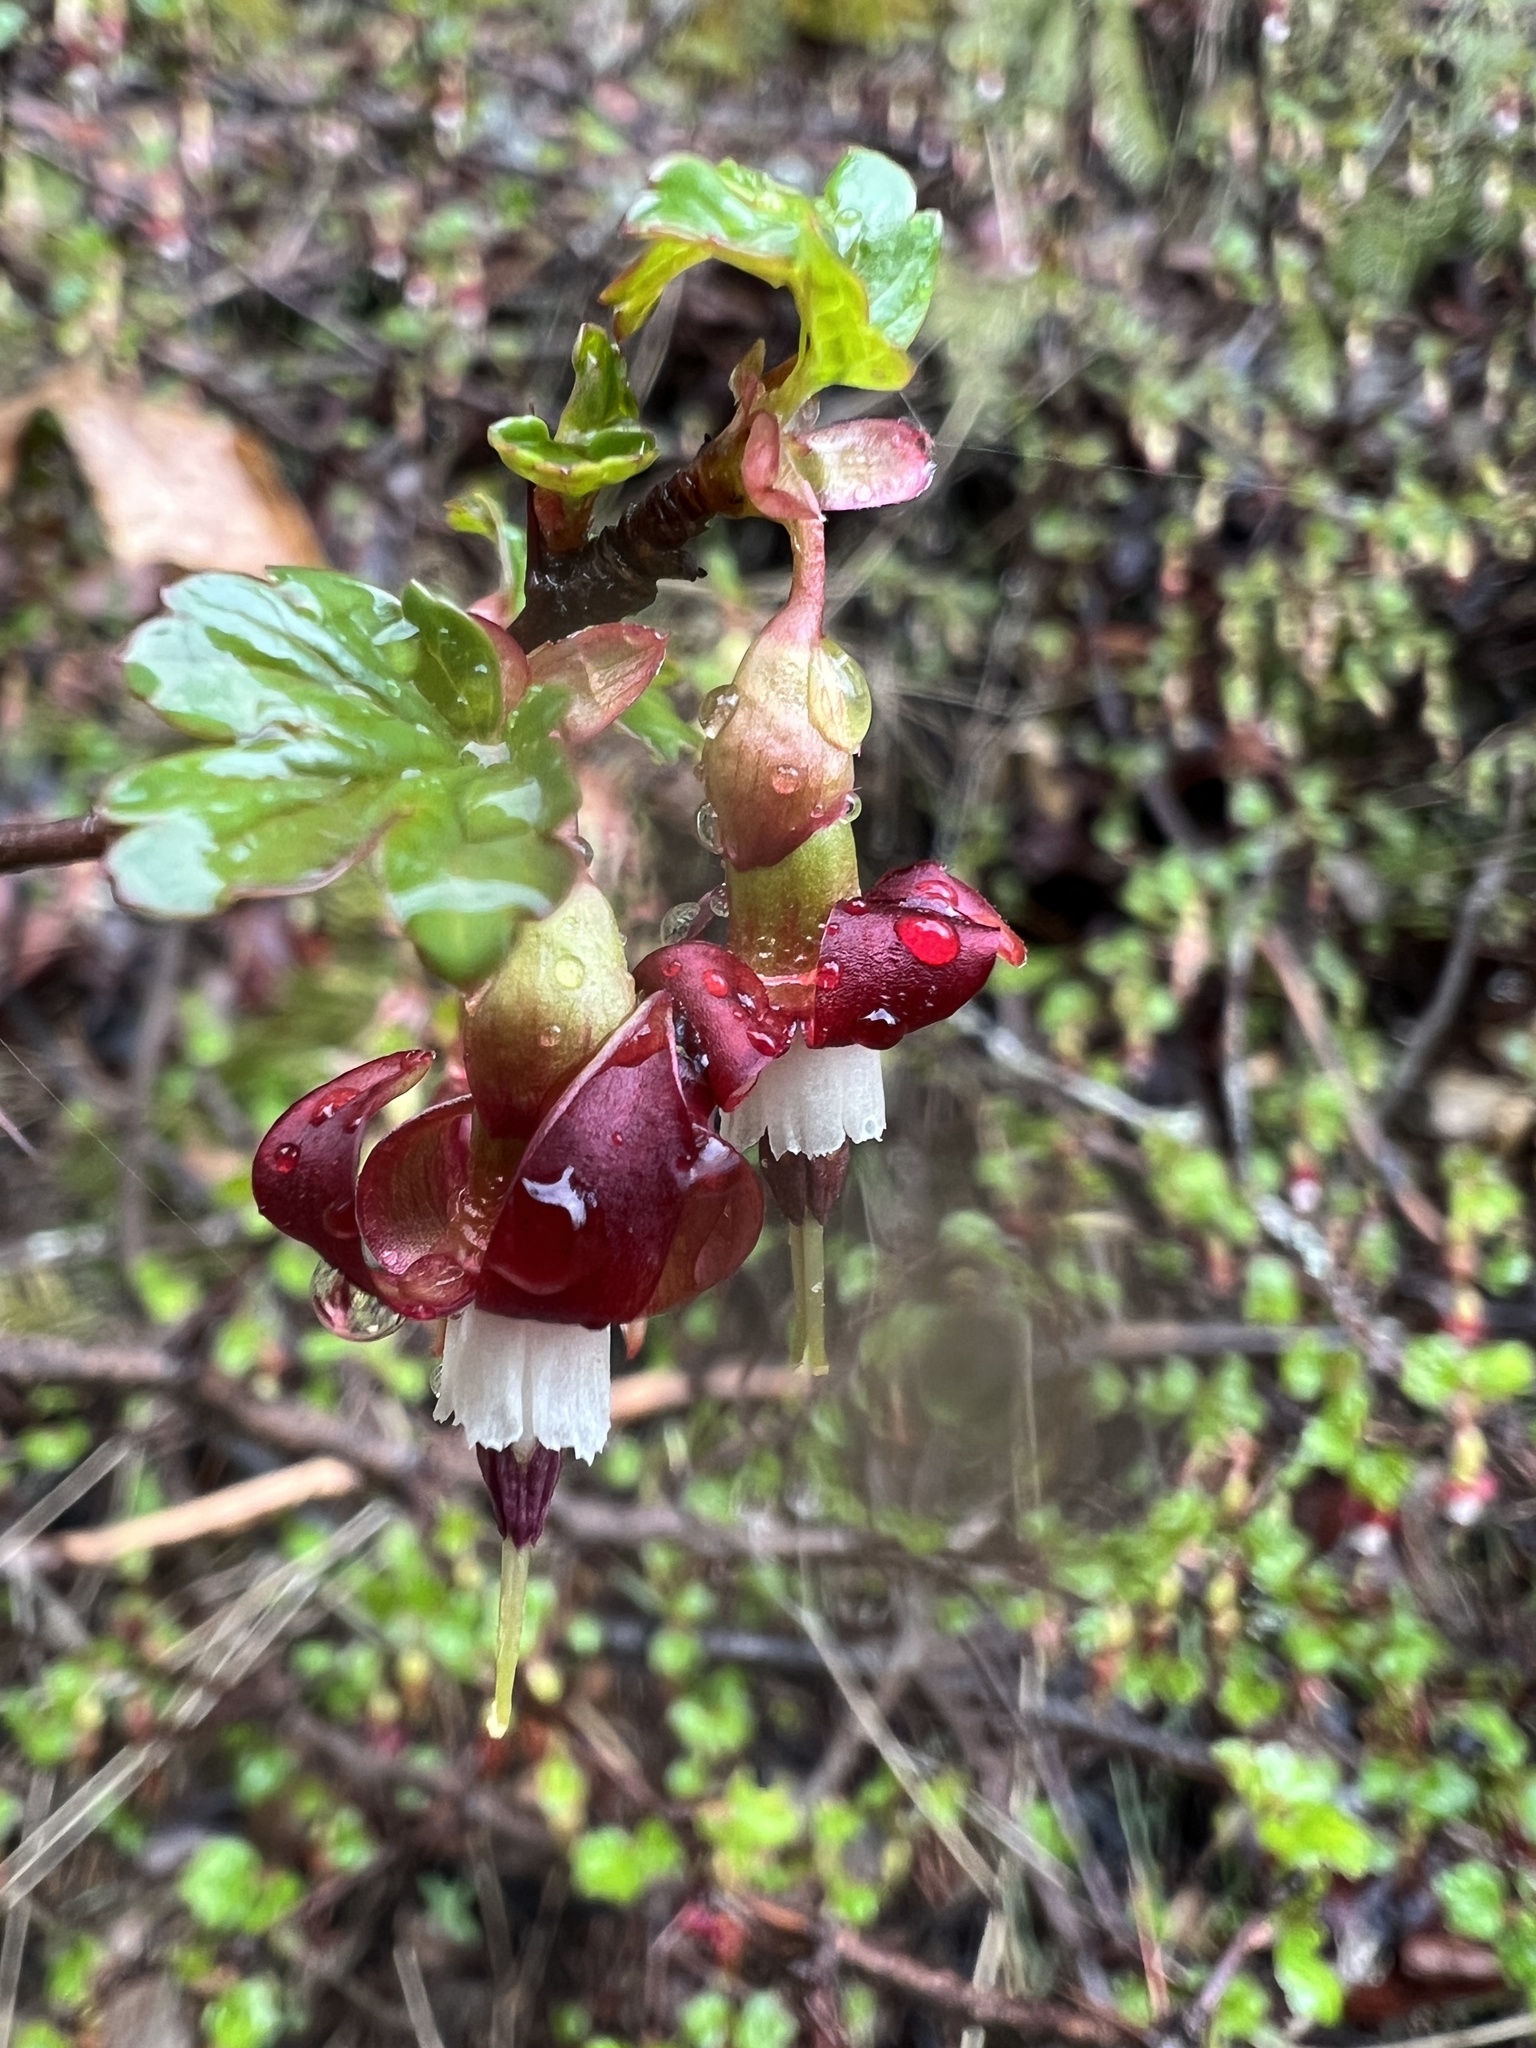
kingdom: Plantae
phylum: Tracheophyta
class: Magnoliopsida
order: Saxifragales
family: Grossulariaceae
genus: Ribes
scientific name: Ribes roezlii
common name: Sierra gooseberry
